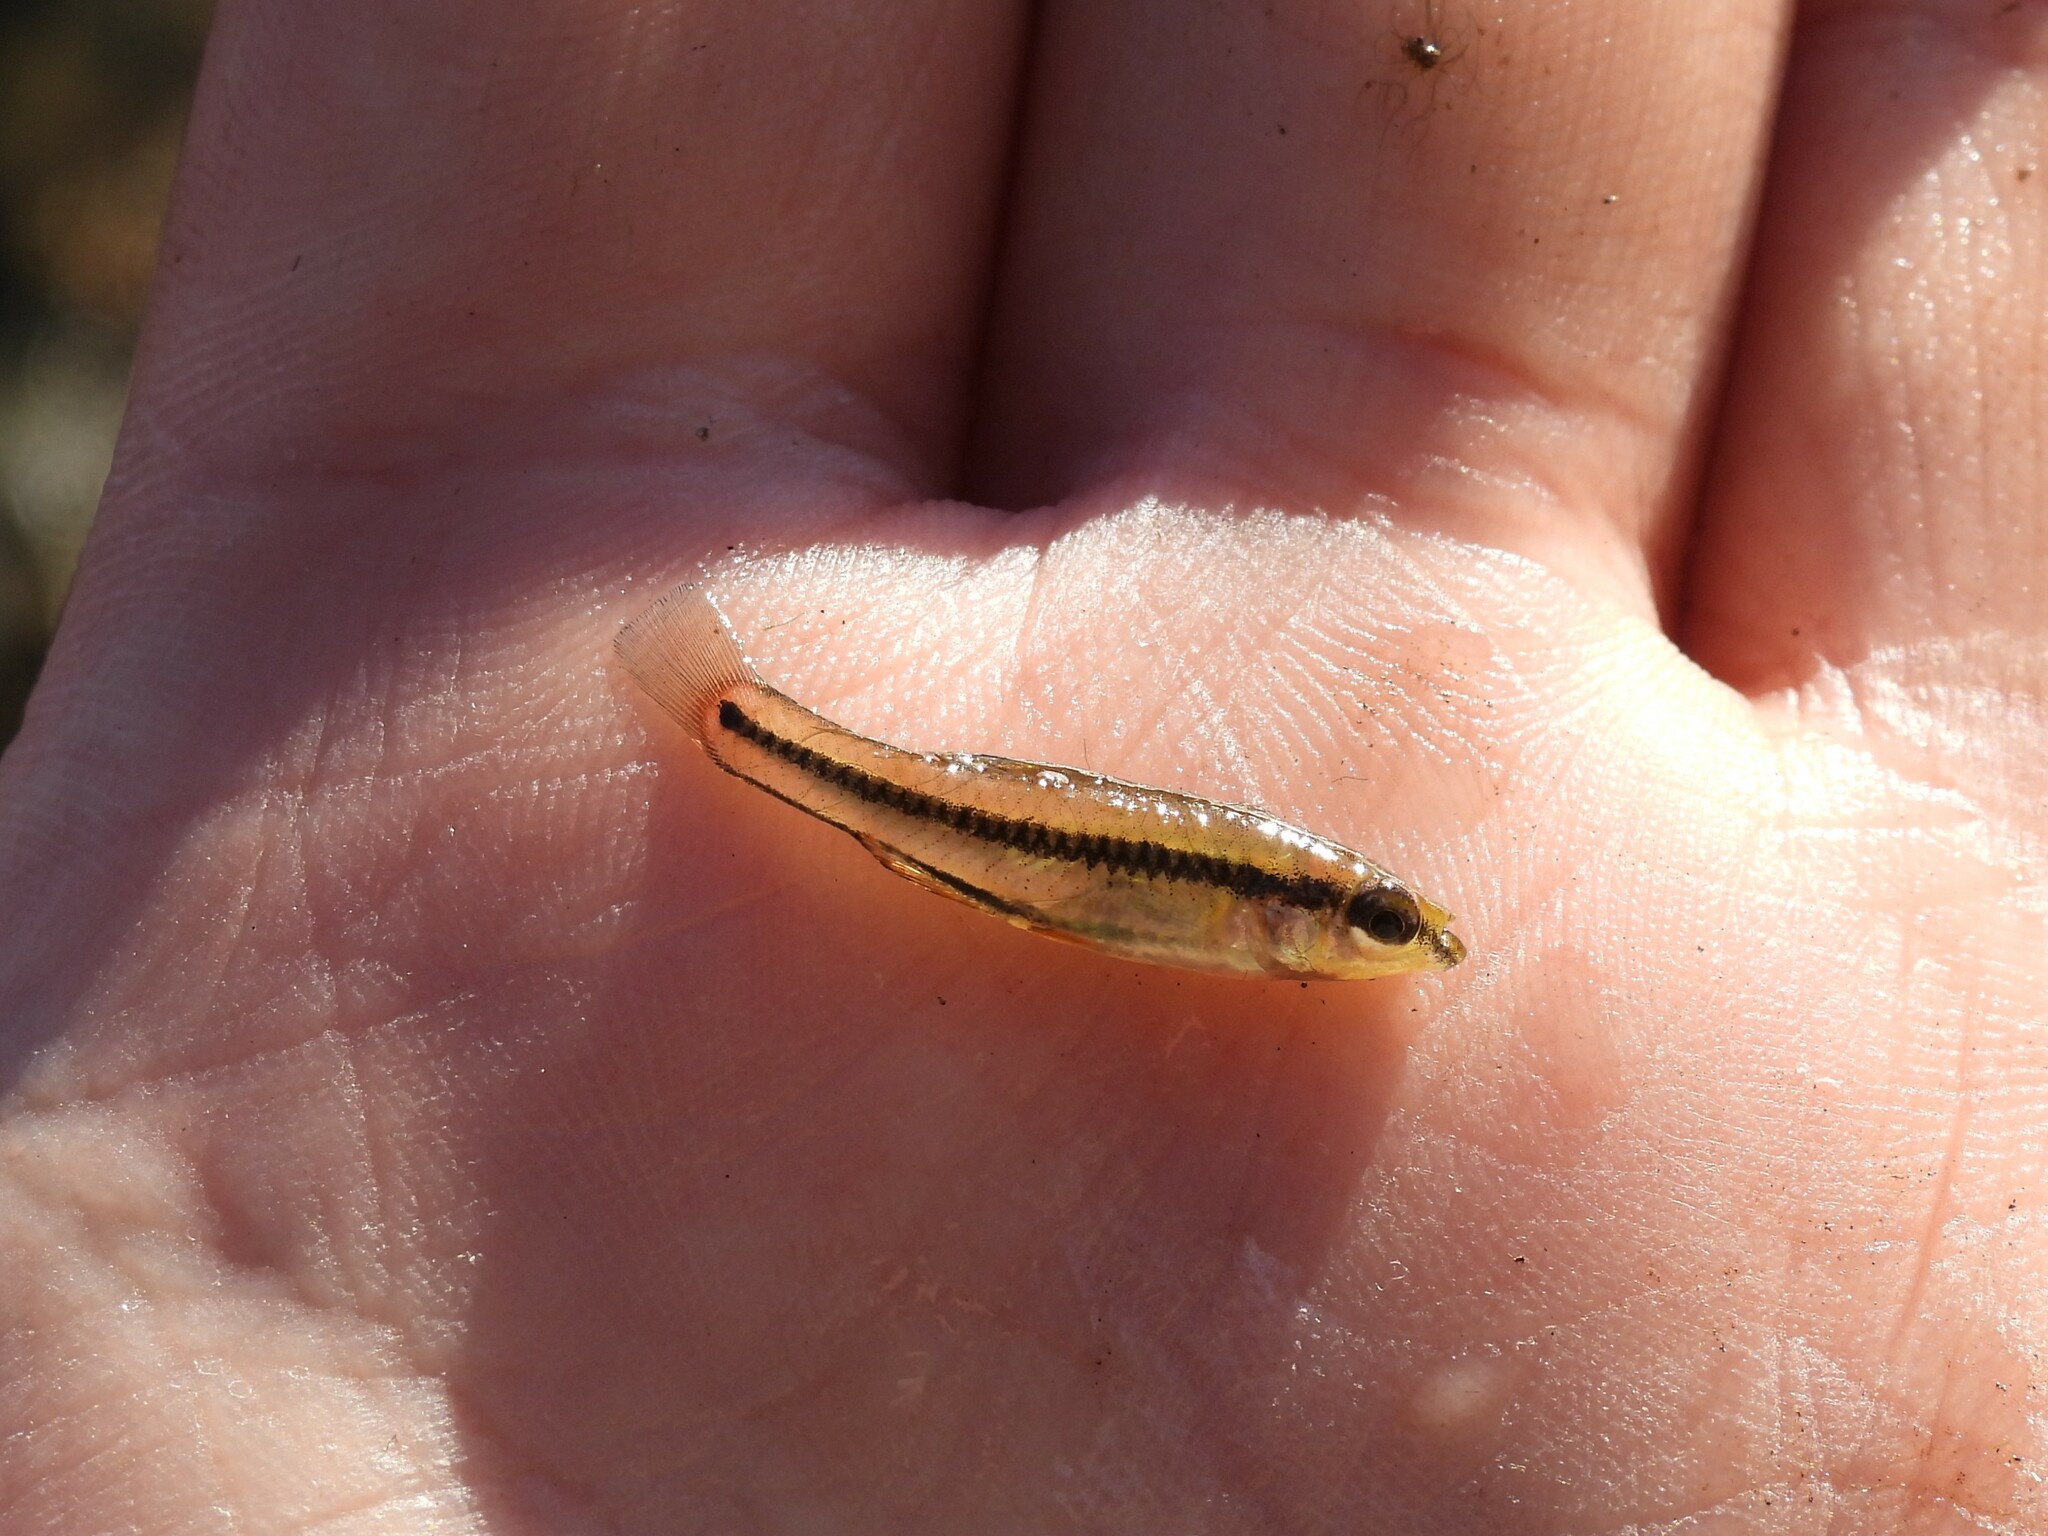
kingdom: Animalia
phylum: Chordata
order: Cyprinodontiformes
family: Fundulidae
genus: Lucania
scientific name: Lucania goodei
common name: Bluefin killifish
